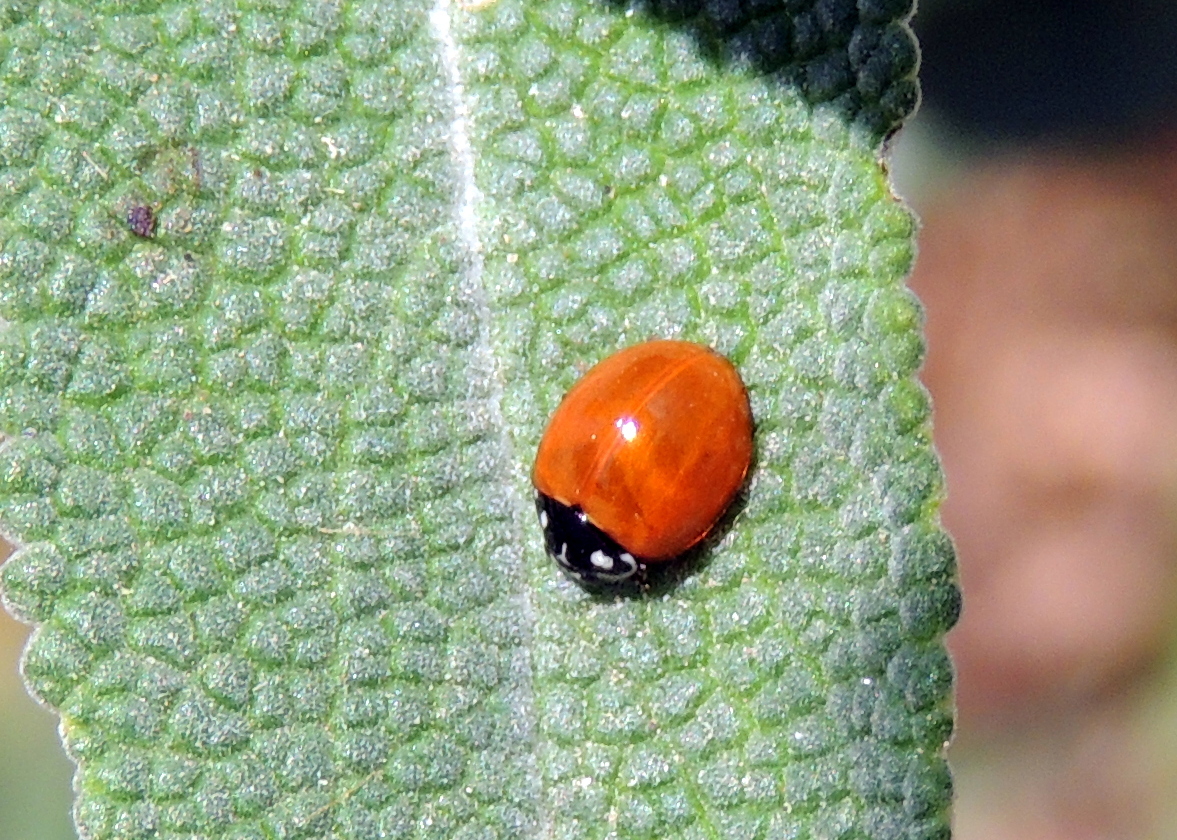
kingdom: Animalia
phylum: Arthropoda
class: Insecta
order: Coleoptera
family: Coccinellidae
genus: Cycloneda
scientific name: Cycloneda sanguinea
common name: Ladybird beetle
